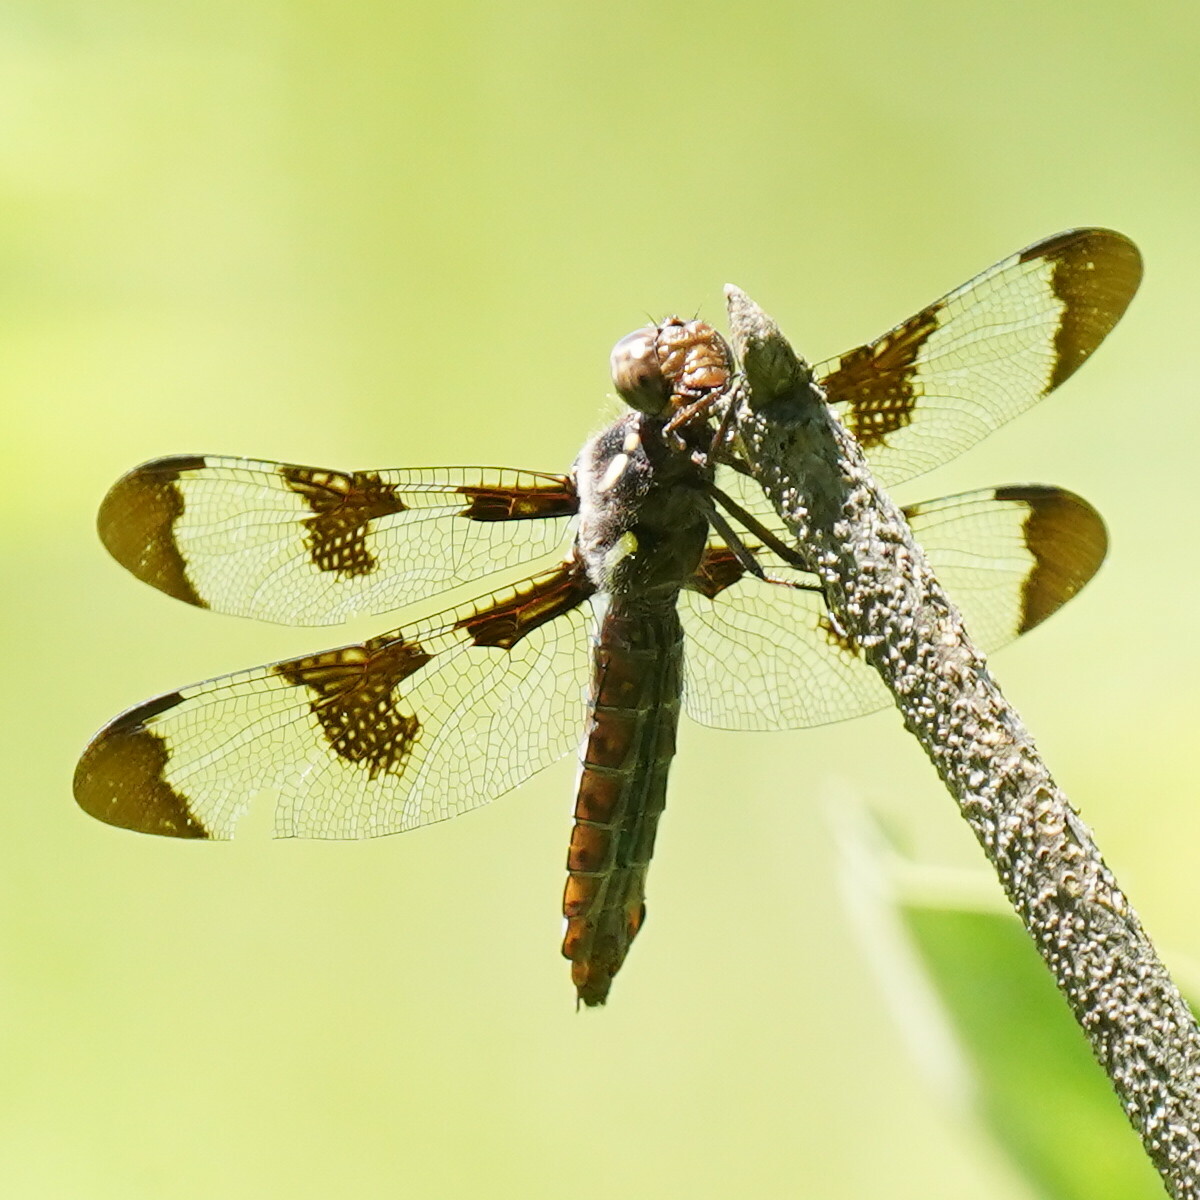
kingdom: Animalia
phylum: Arthropoda
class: Insecta
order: Odonata
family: Libellulidae
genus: Plathemis
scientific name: Plathemis lydia
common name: Common whitetail
